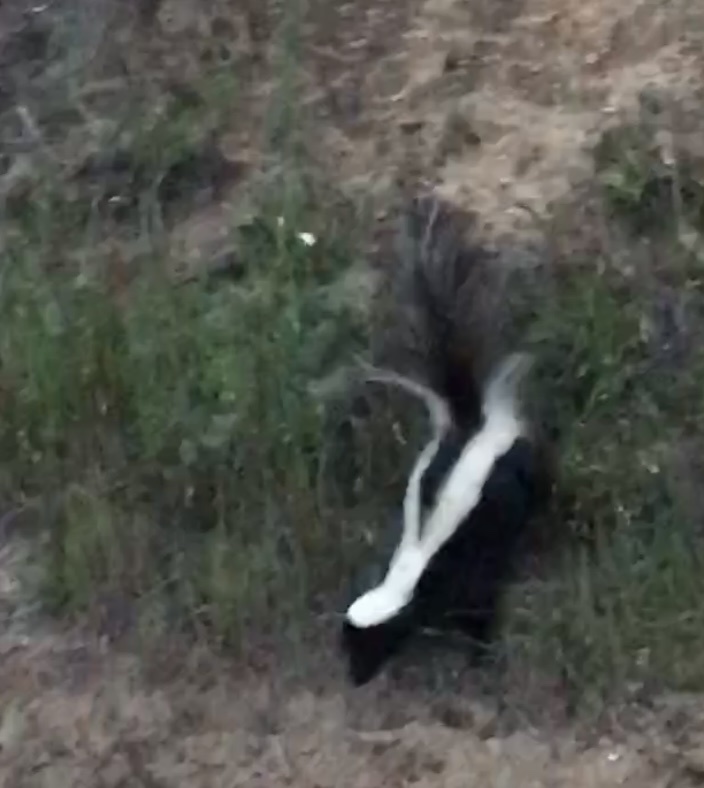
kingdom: Animalia
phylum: Chordata
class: Mammalia
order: Carnivora
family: Mephitidae
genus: Mephitis
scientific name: Mephitis mephitis
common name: Striped skunk
